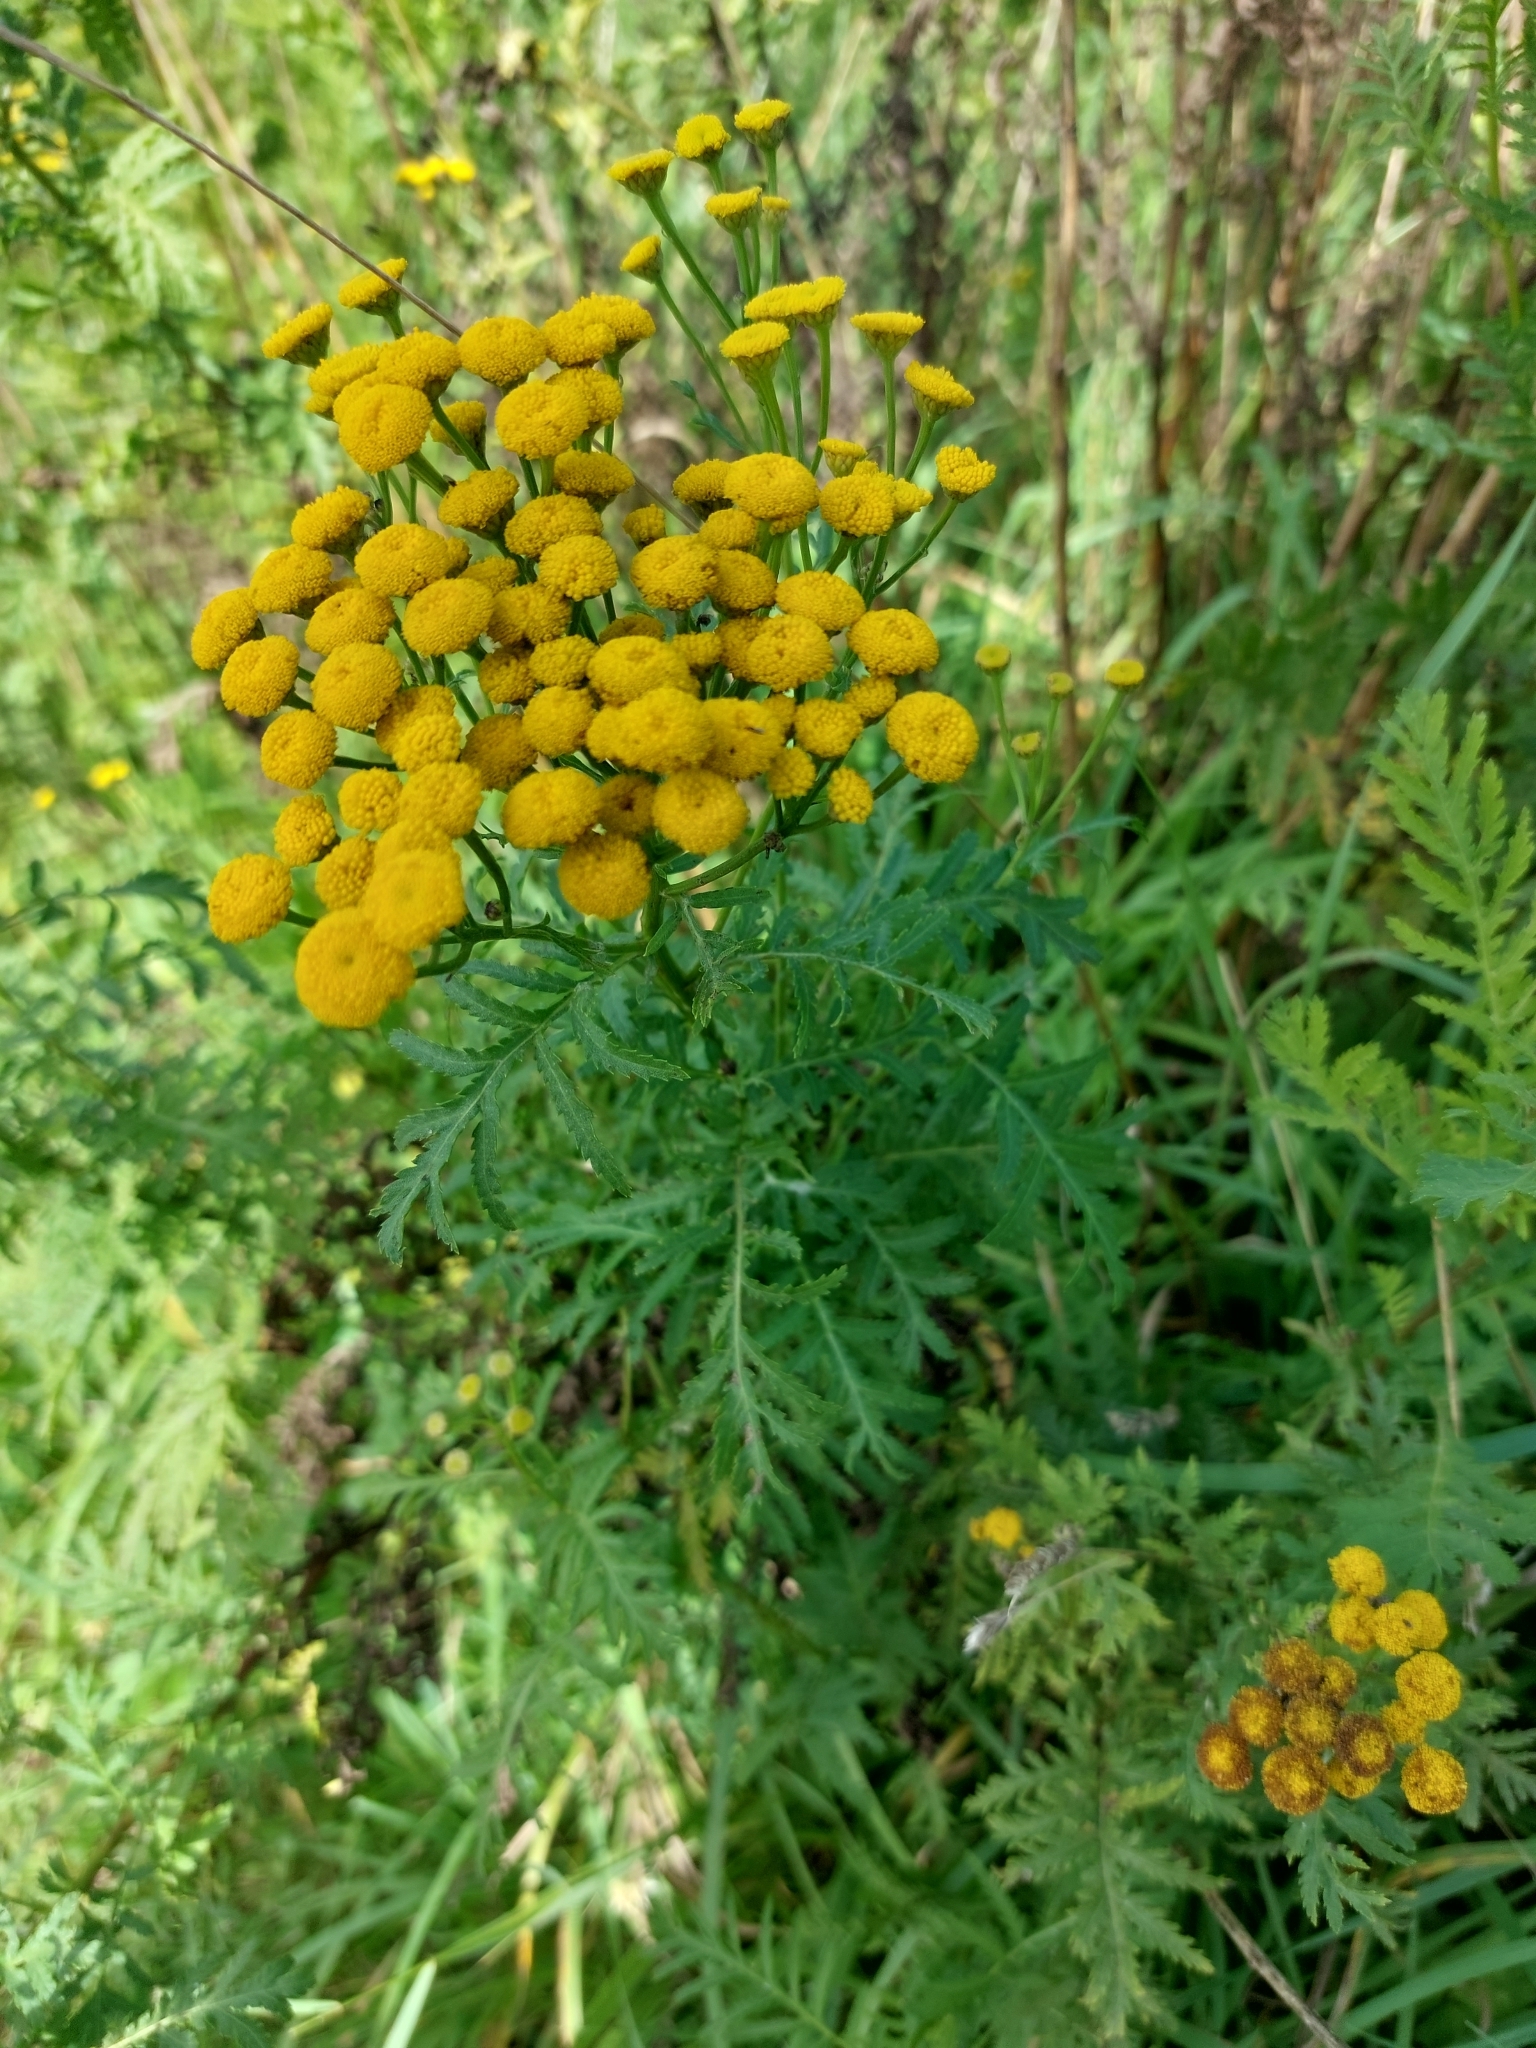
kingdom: Plantae
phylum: Tracheophyta
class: Magnoliopsida
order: Asterales
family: Asteraceae
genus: Tanacetum
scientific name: Tanacetum vulgare
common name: Common tansy
